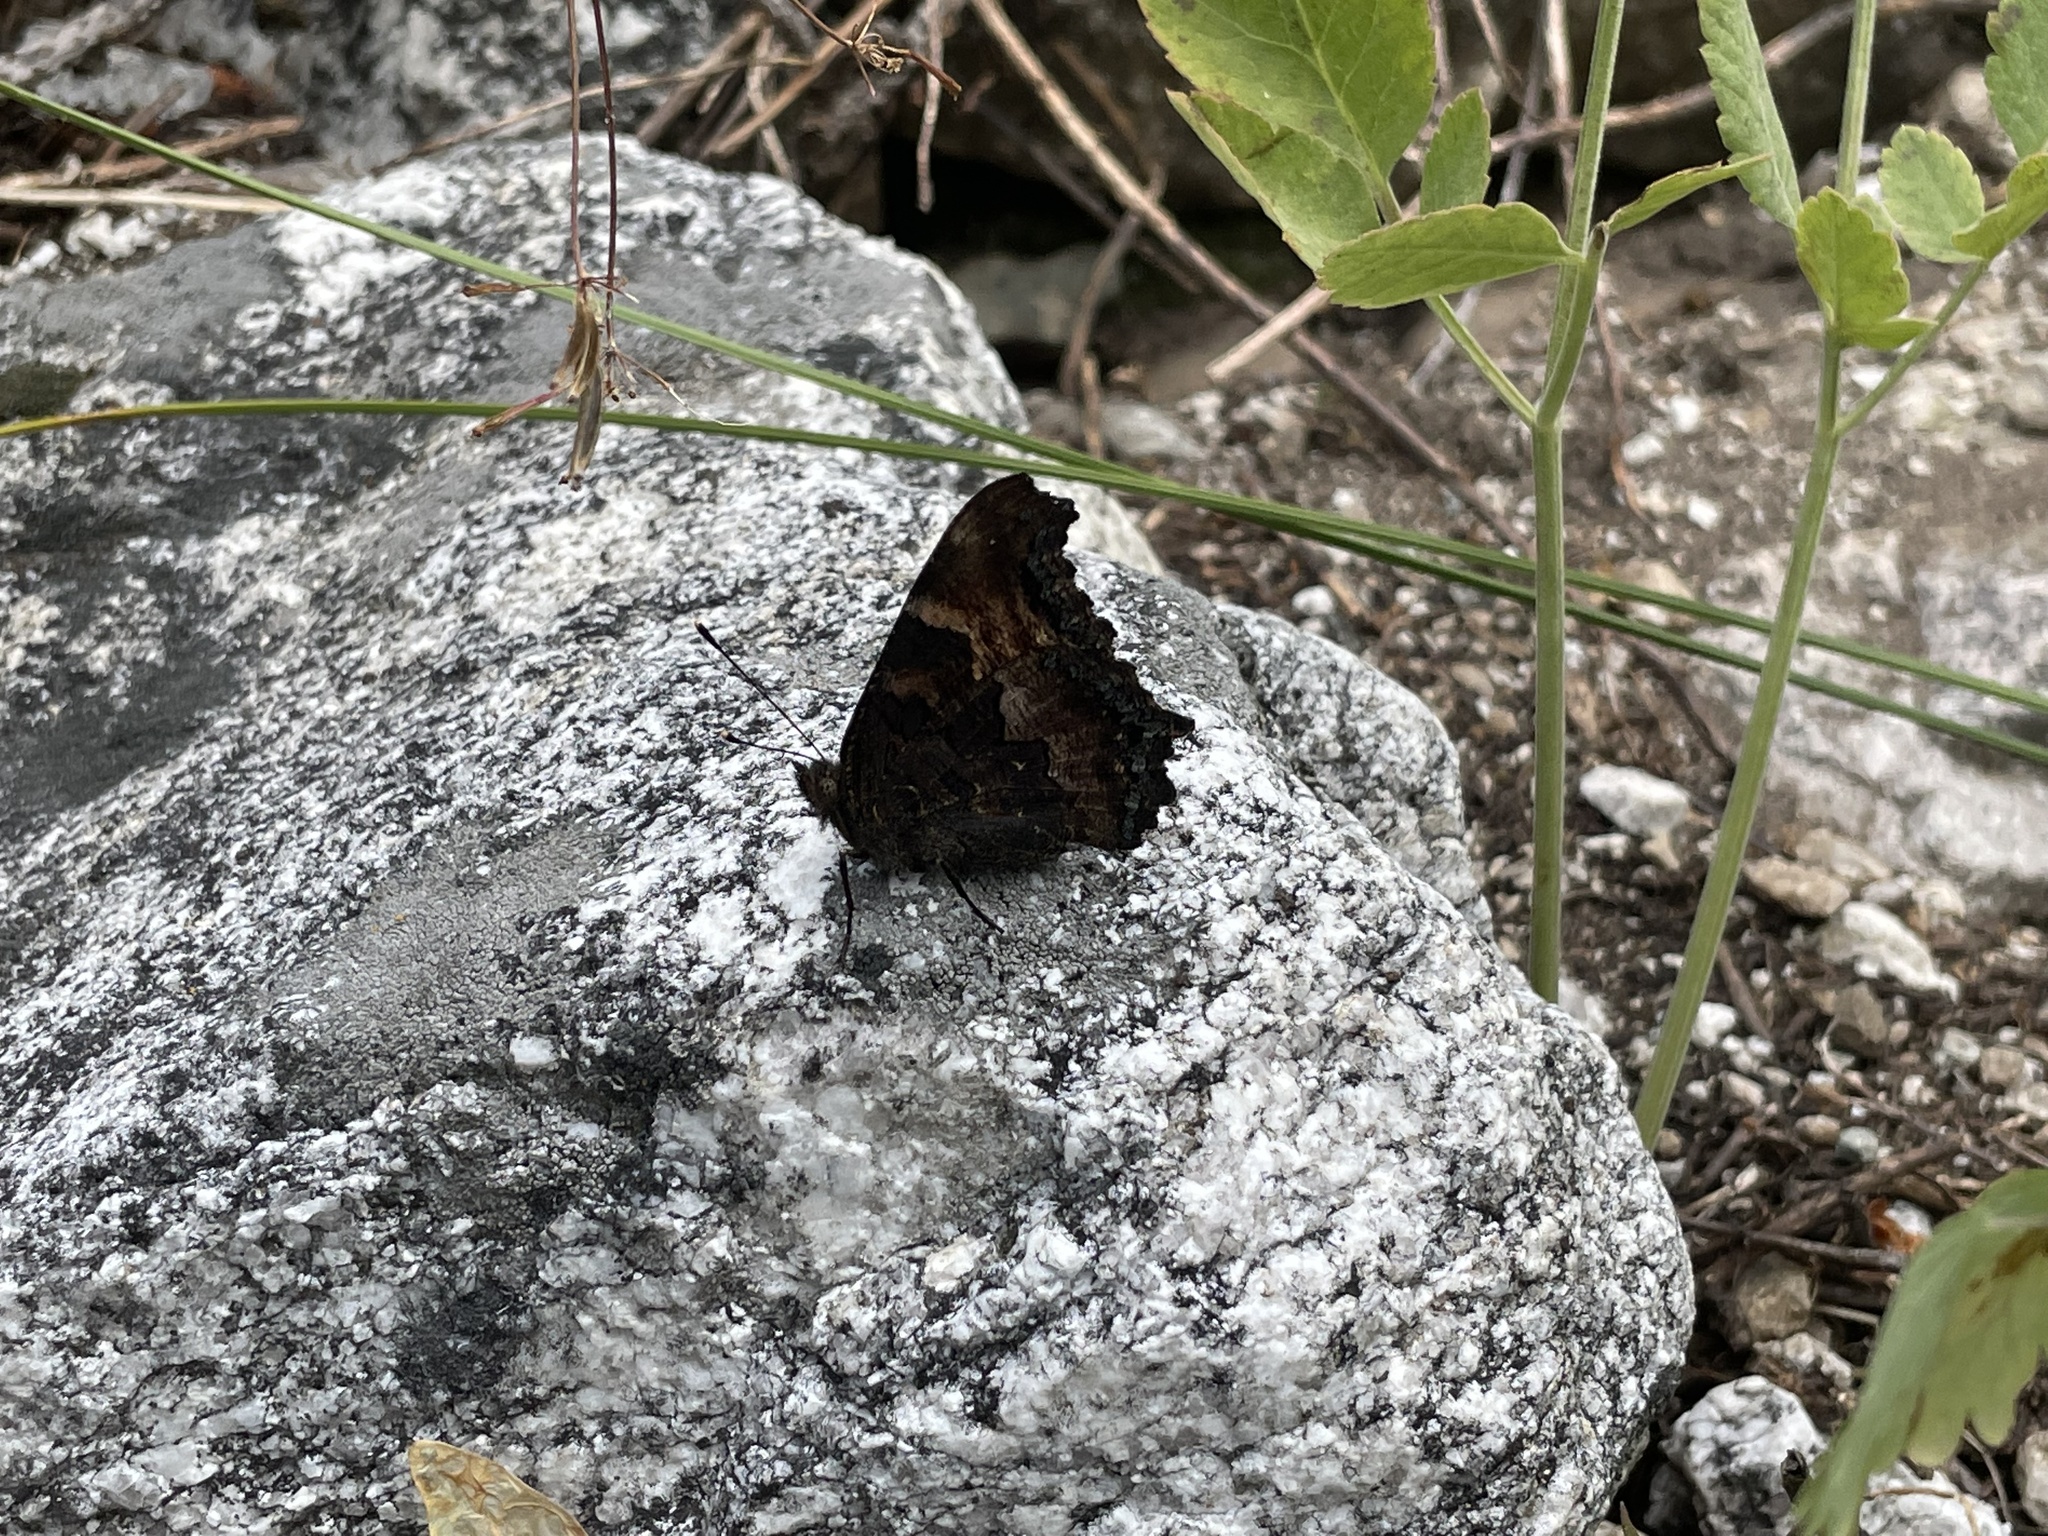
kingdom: Animalia
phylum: Arthropoda
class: Insecta
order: Lepidoptera
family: Nymphalidae
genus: Nymphalis
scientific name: Nymphalis californica
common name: California tortoiseshell
